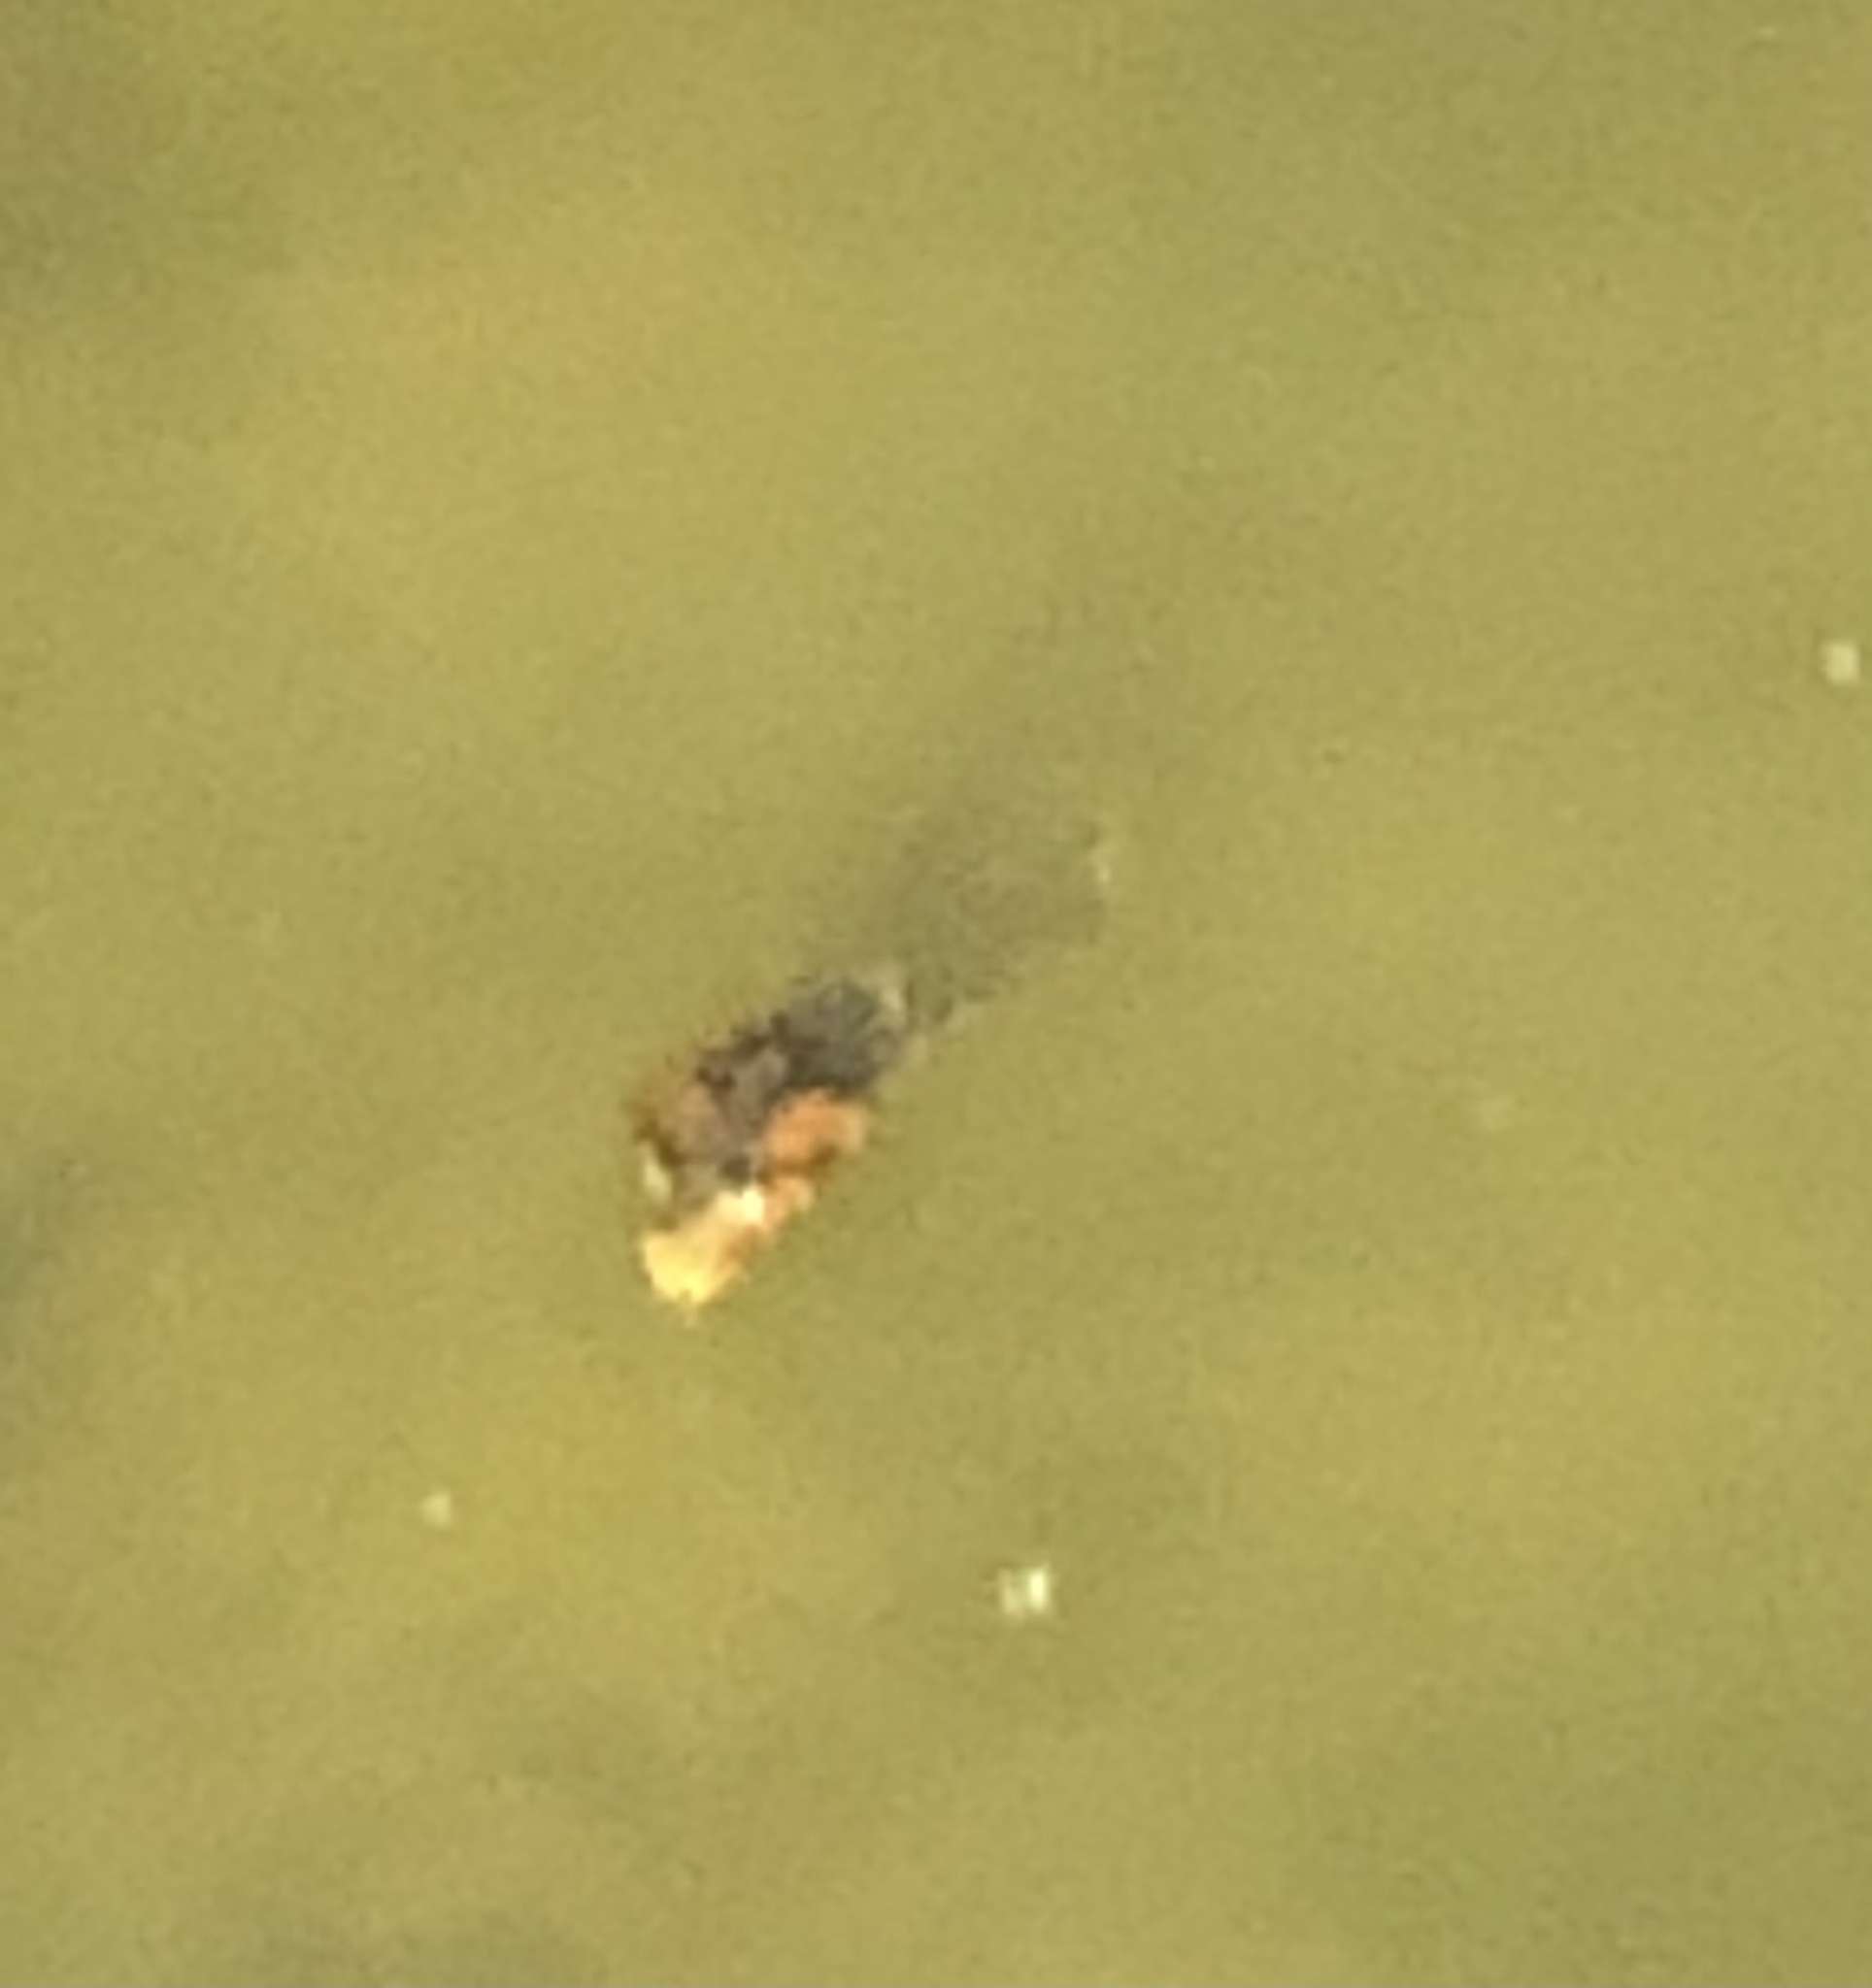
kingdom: Animalia
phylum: Chordata
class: Squamata
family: Colubridae
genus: Nerodia
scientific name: Nerodia fasciata
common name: Southern water snake
